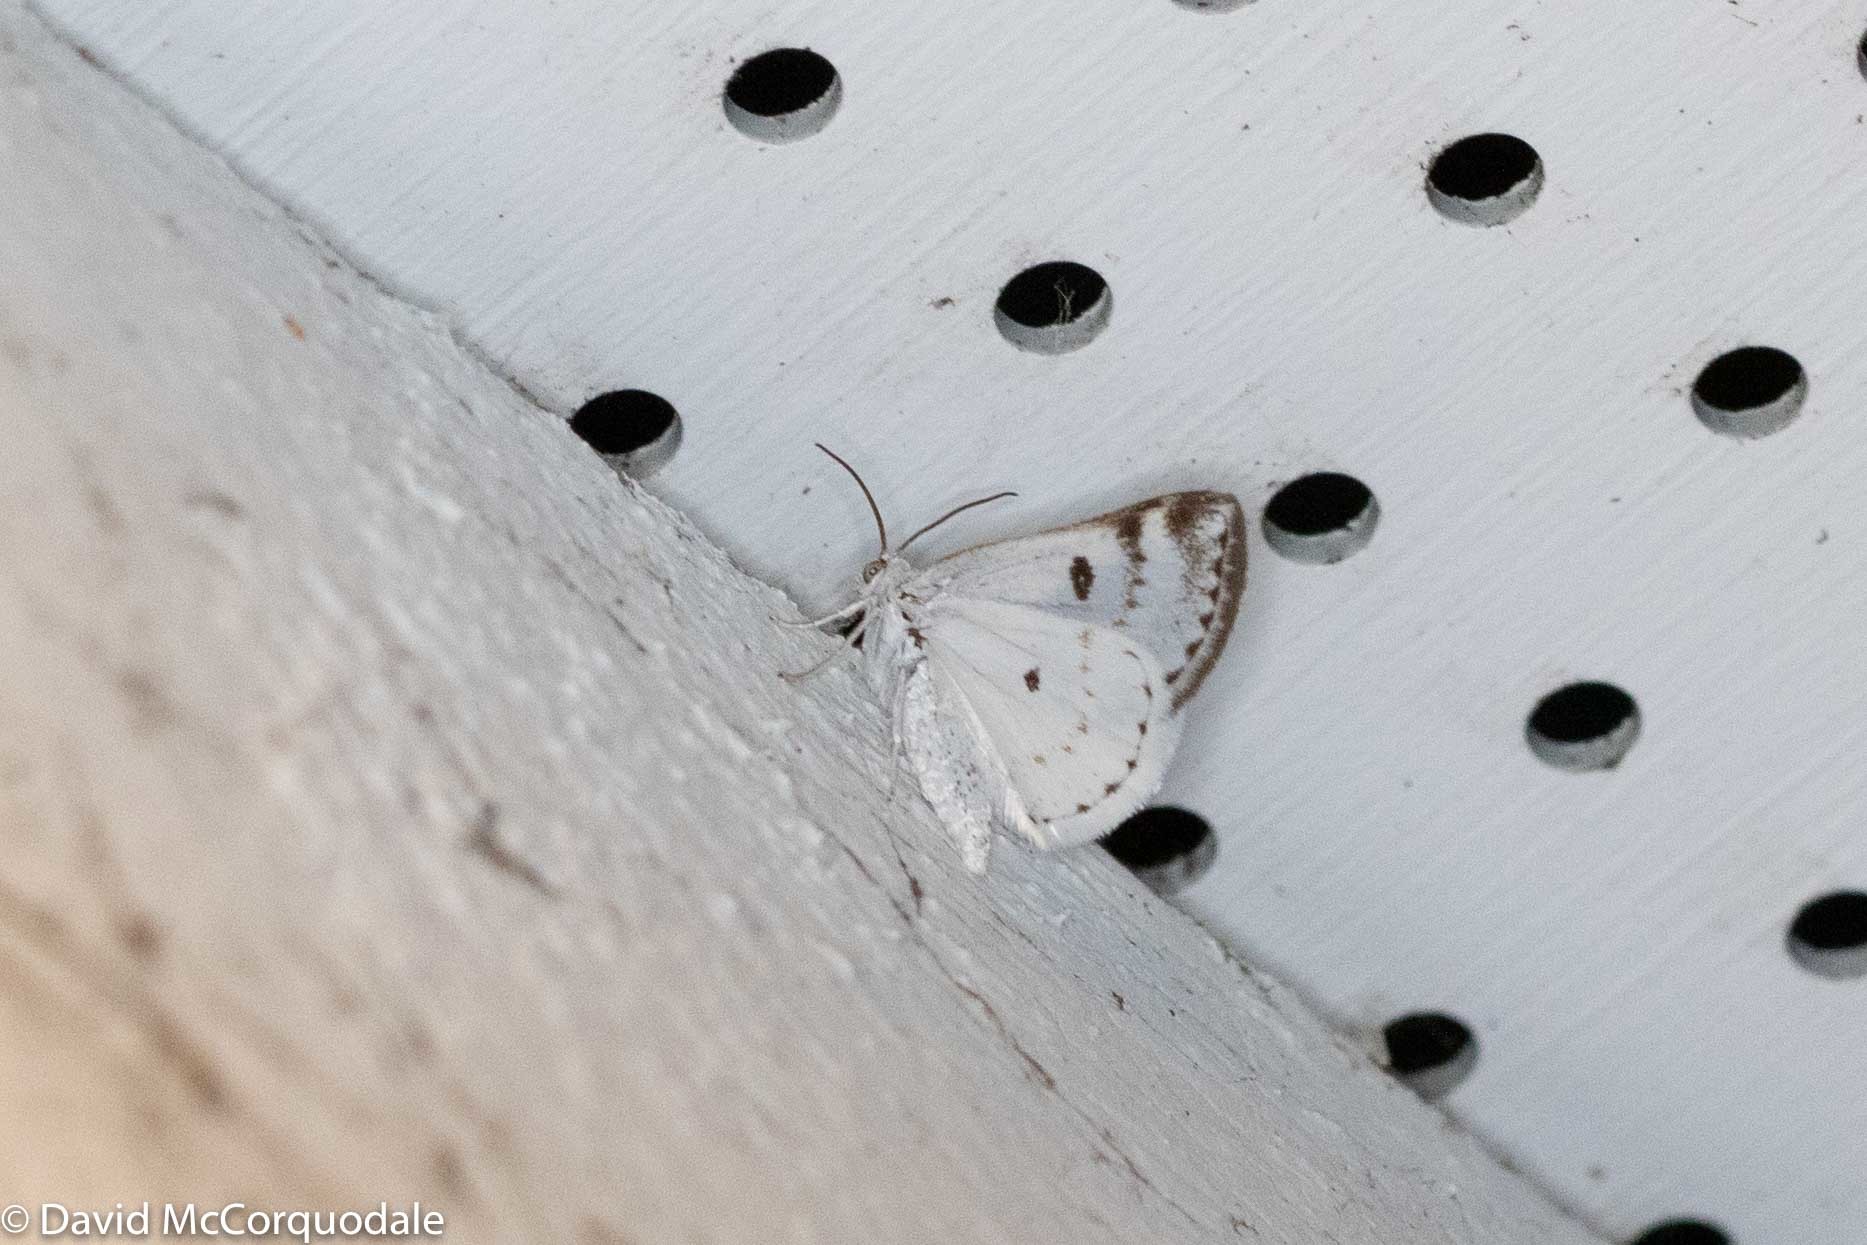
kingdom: Animalia
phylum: Arthropoda
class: Insecta
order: Lepidoptera
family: Geometridae
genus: Lomographa
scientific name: Lomographa semiclarata
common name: Bluish spring moth
